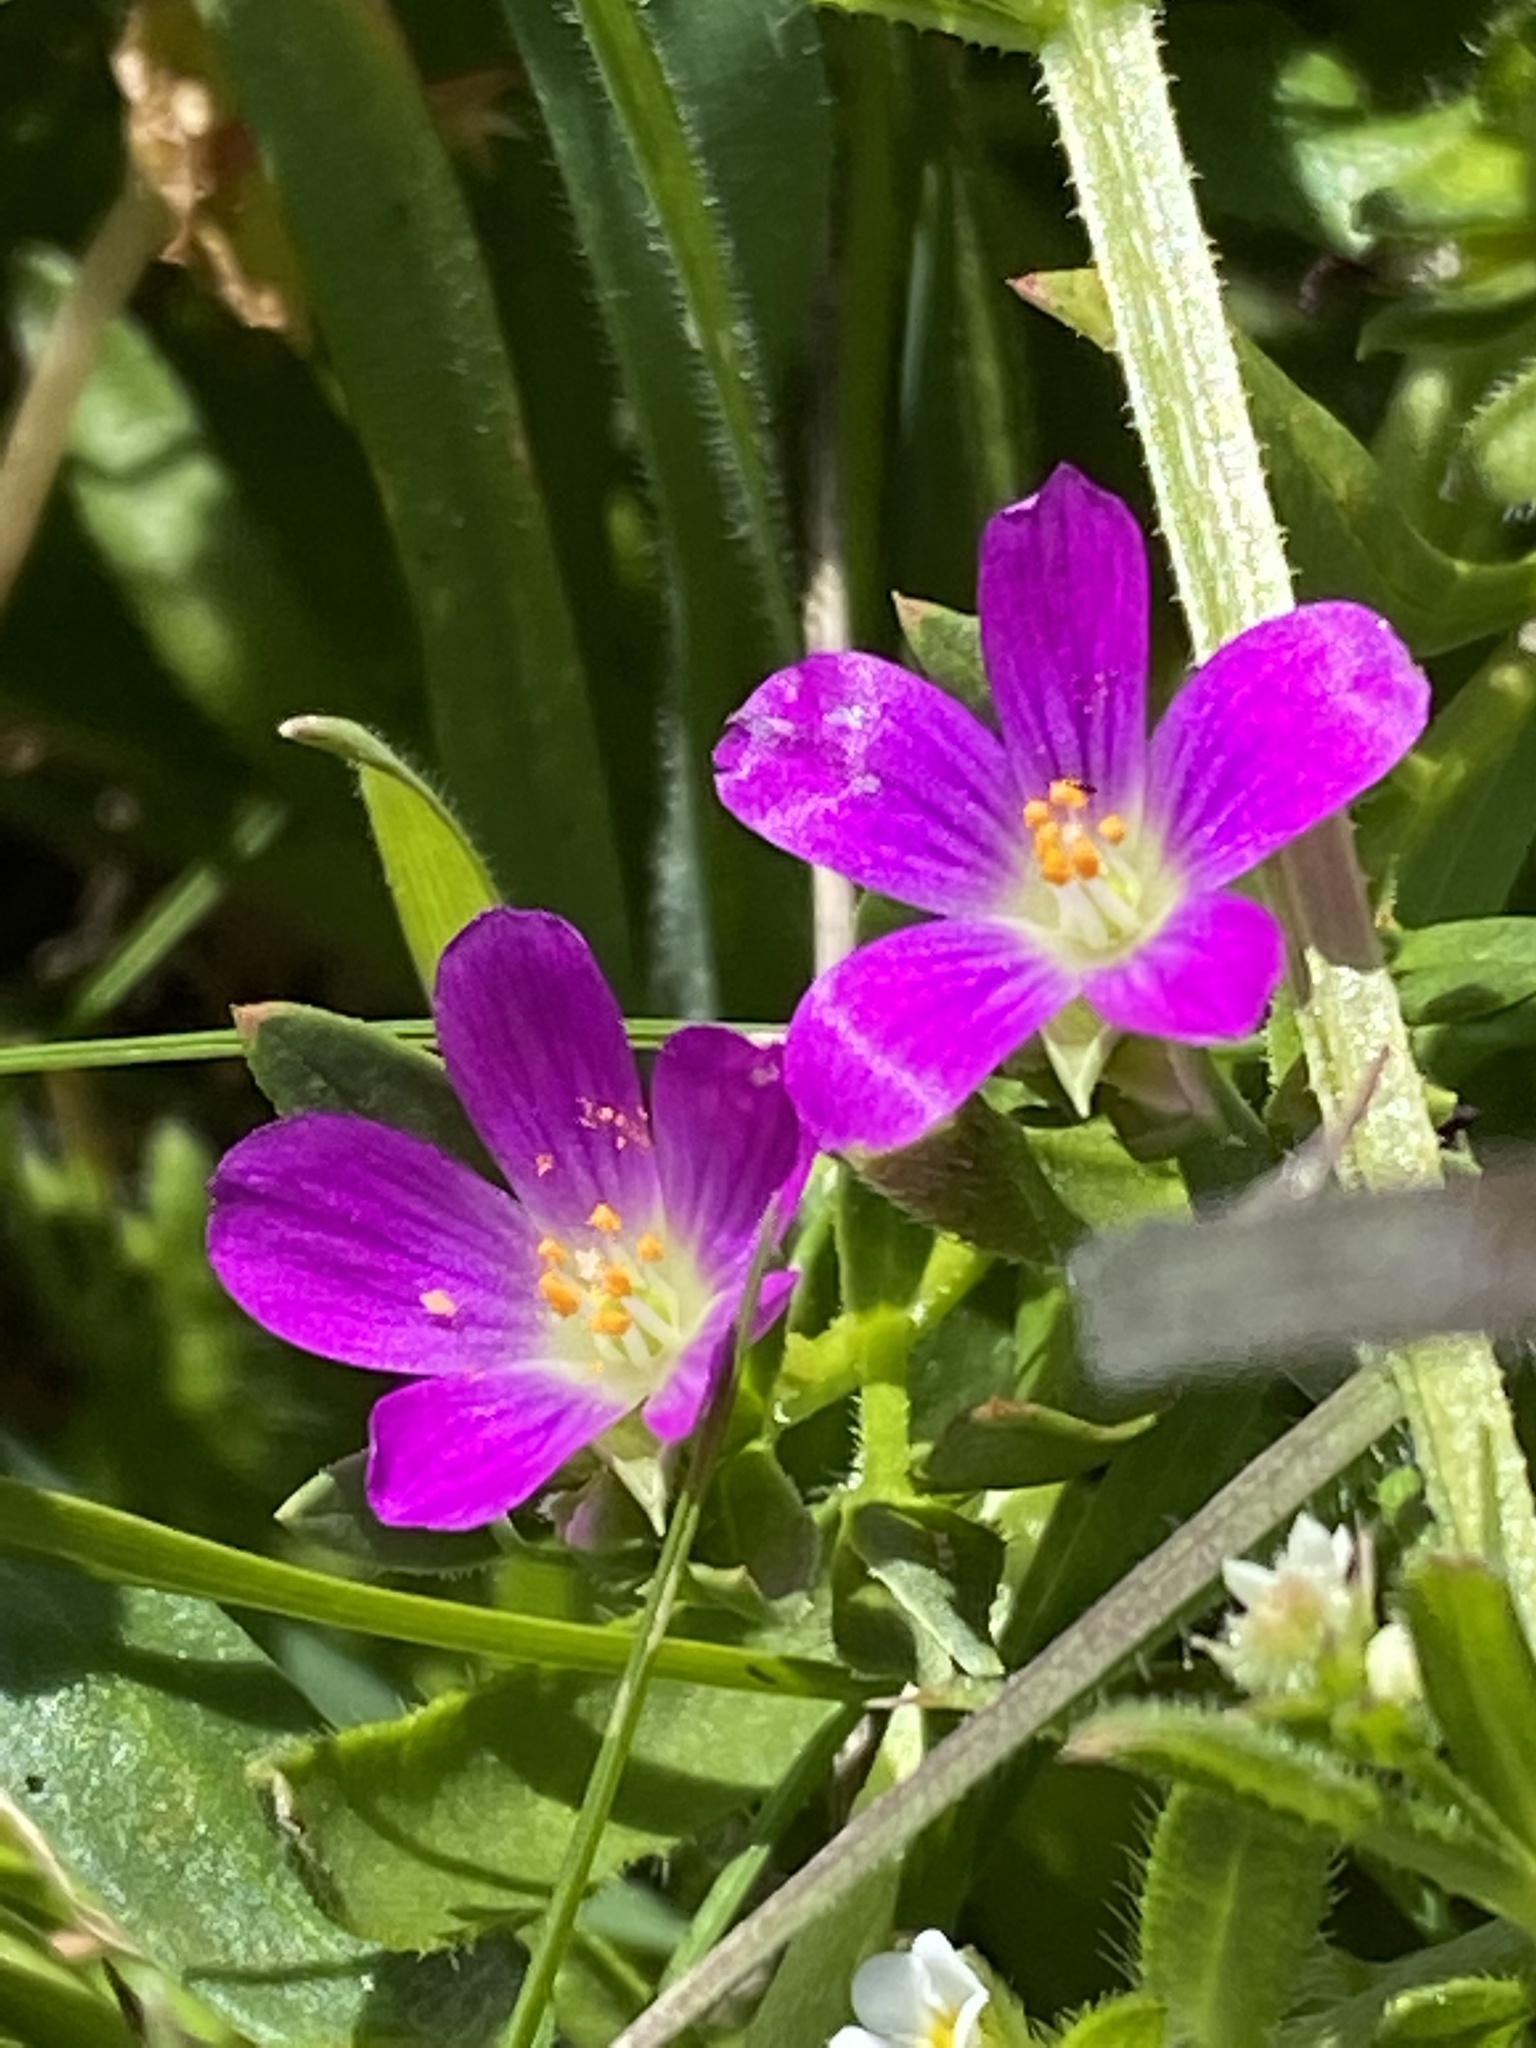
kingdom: Plantae
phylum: Tracheophyta
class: Magnoliopsida
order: Caryophyllales
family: Montiaceae
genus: Calandrinia
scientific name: Calandrinia menziesii
